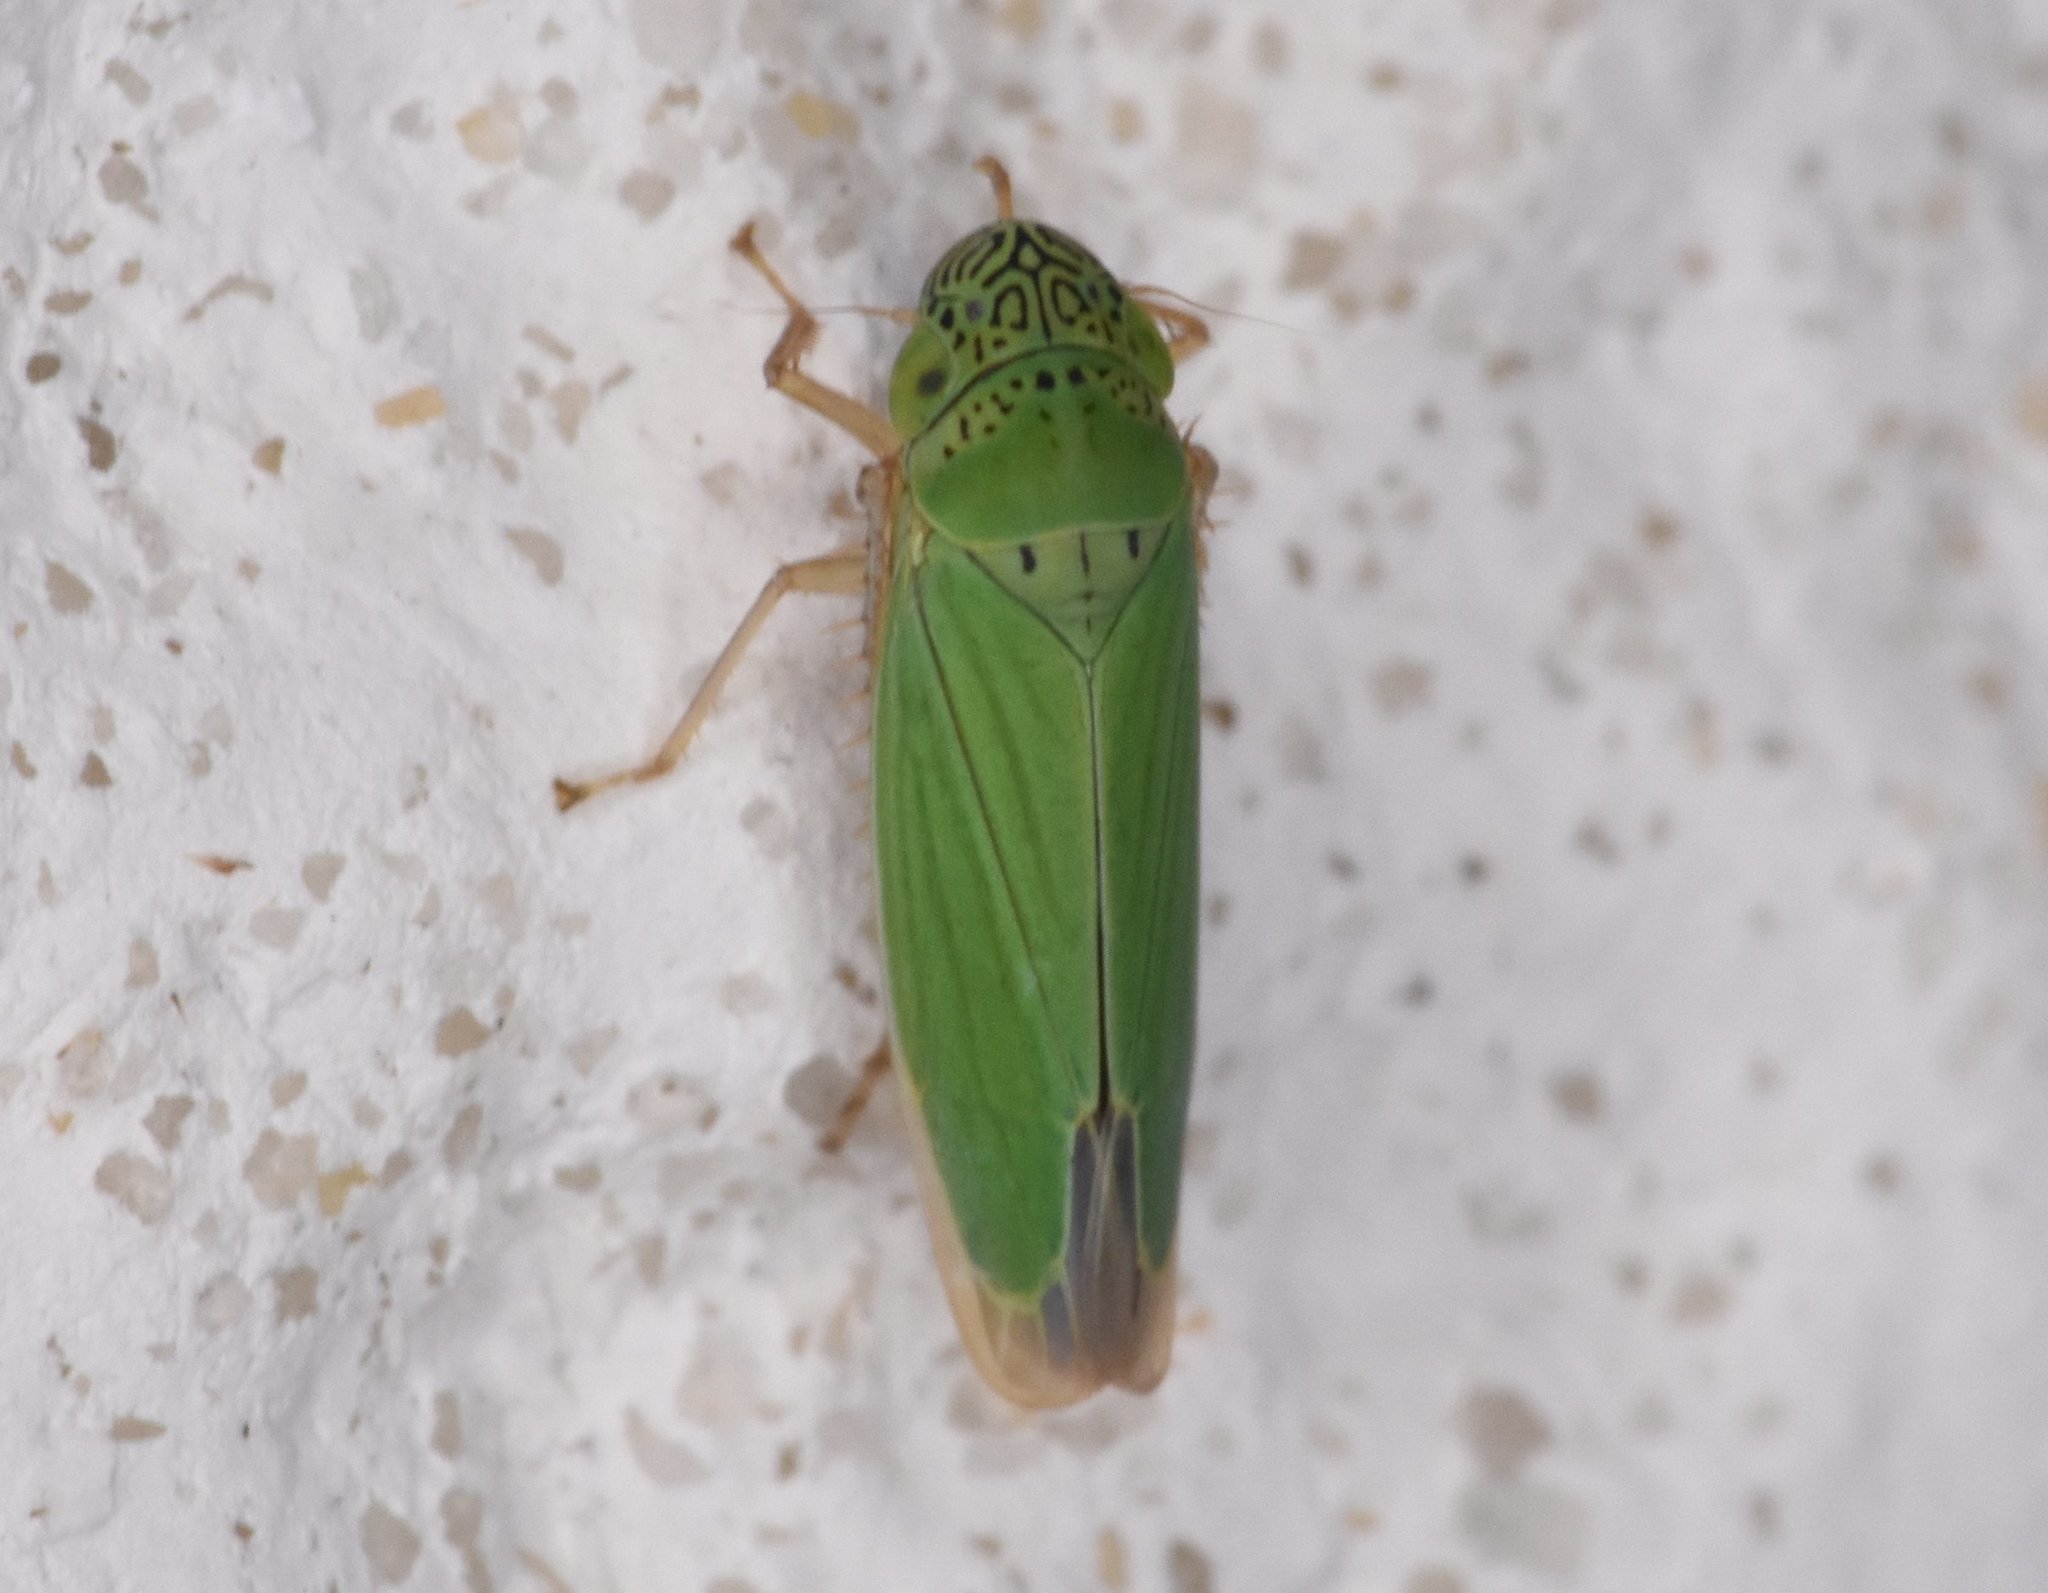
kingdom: Animalia
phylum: Arthropoda
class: Insecta
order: Hemiptera
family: Cicadellidae
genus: Hortensia
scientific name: Hortensia similis
